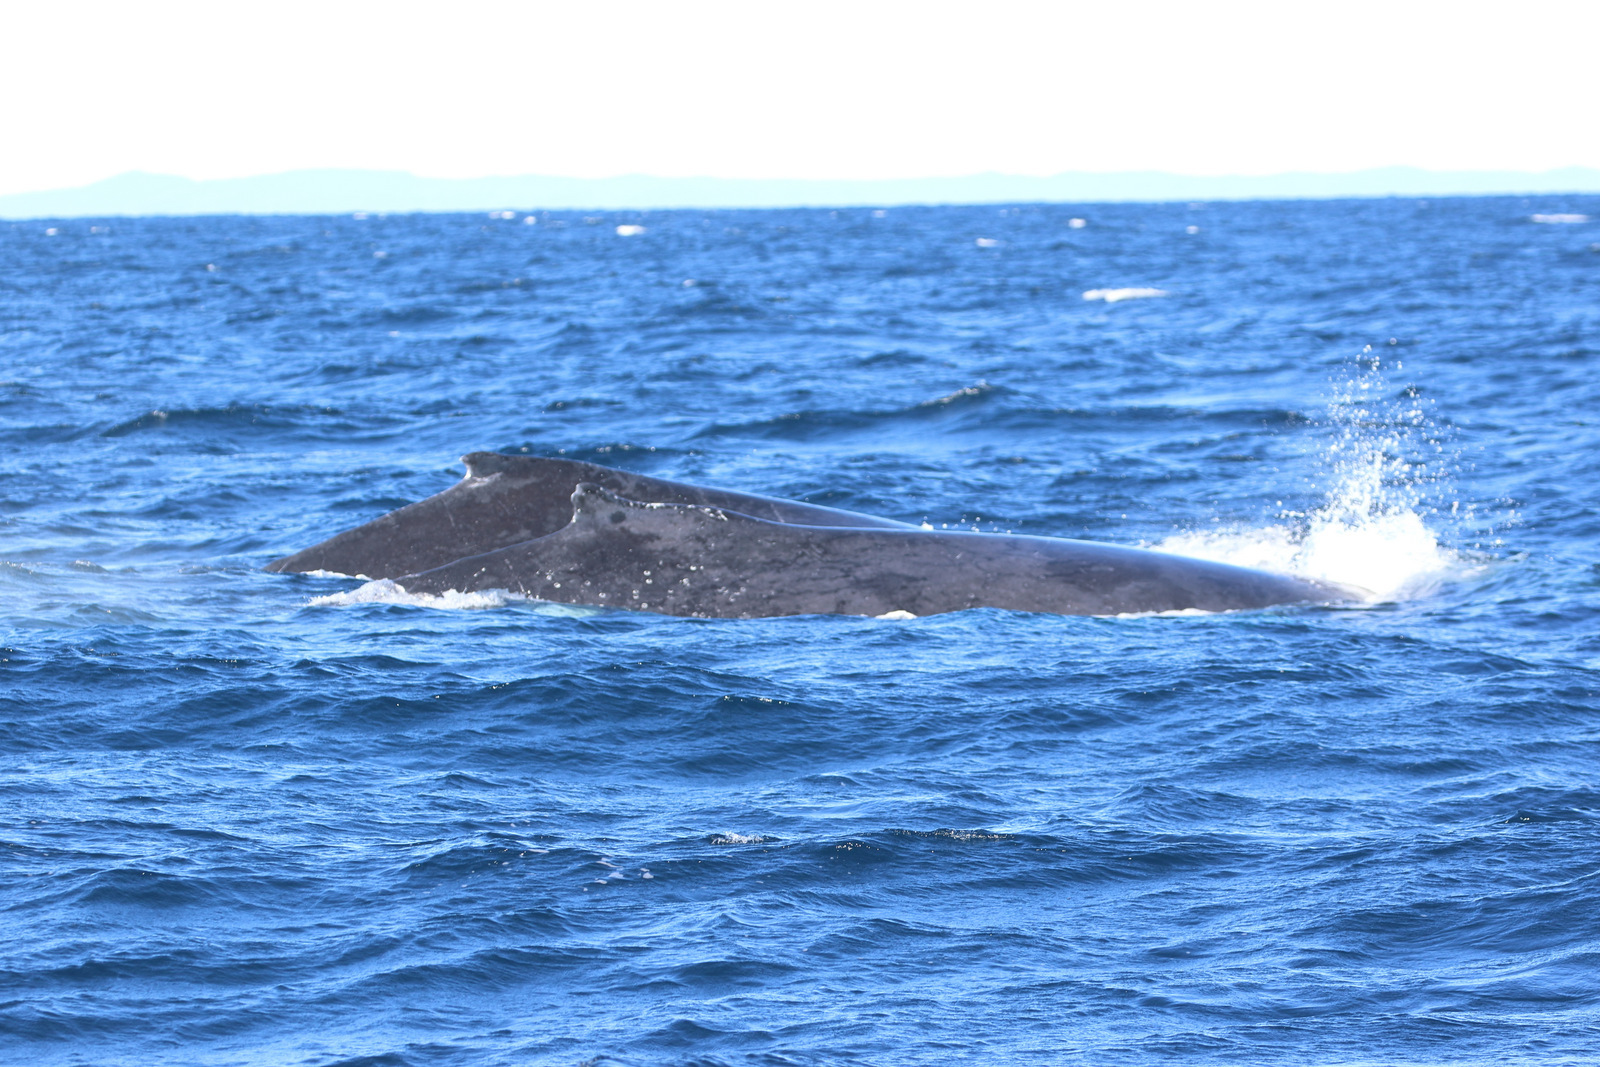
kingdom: Animalia
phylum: Chordata
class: Mammalia
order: Cetacea
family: Balaenopteridae
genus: Megaptera
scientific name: Megaptera novaeangliae
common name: Humpback whale
